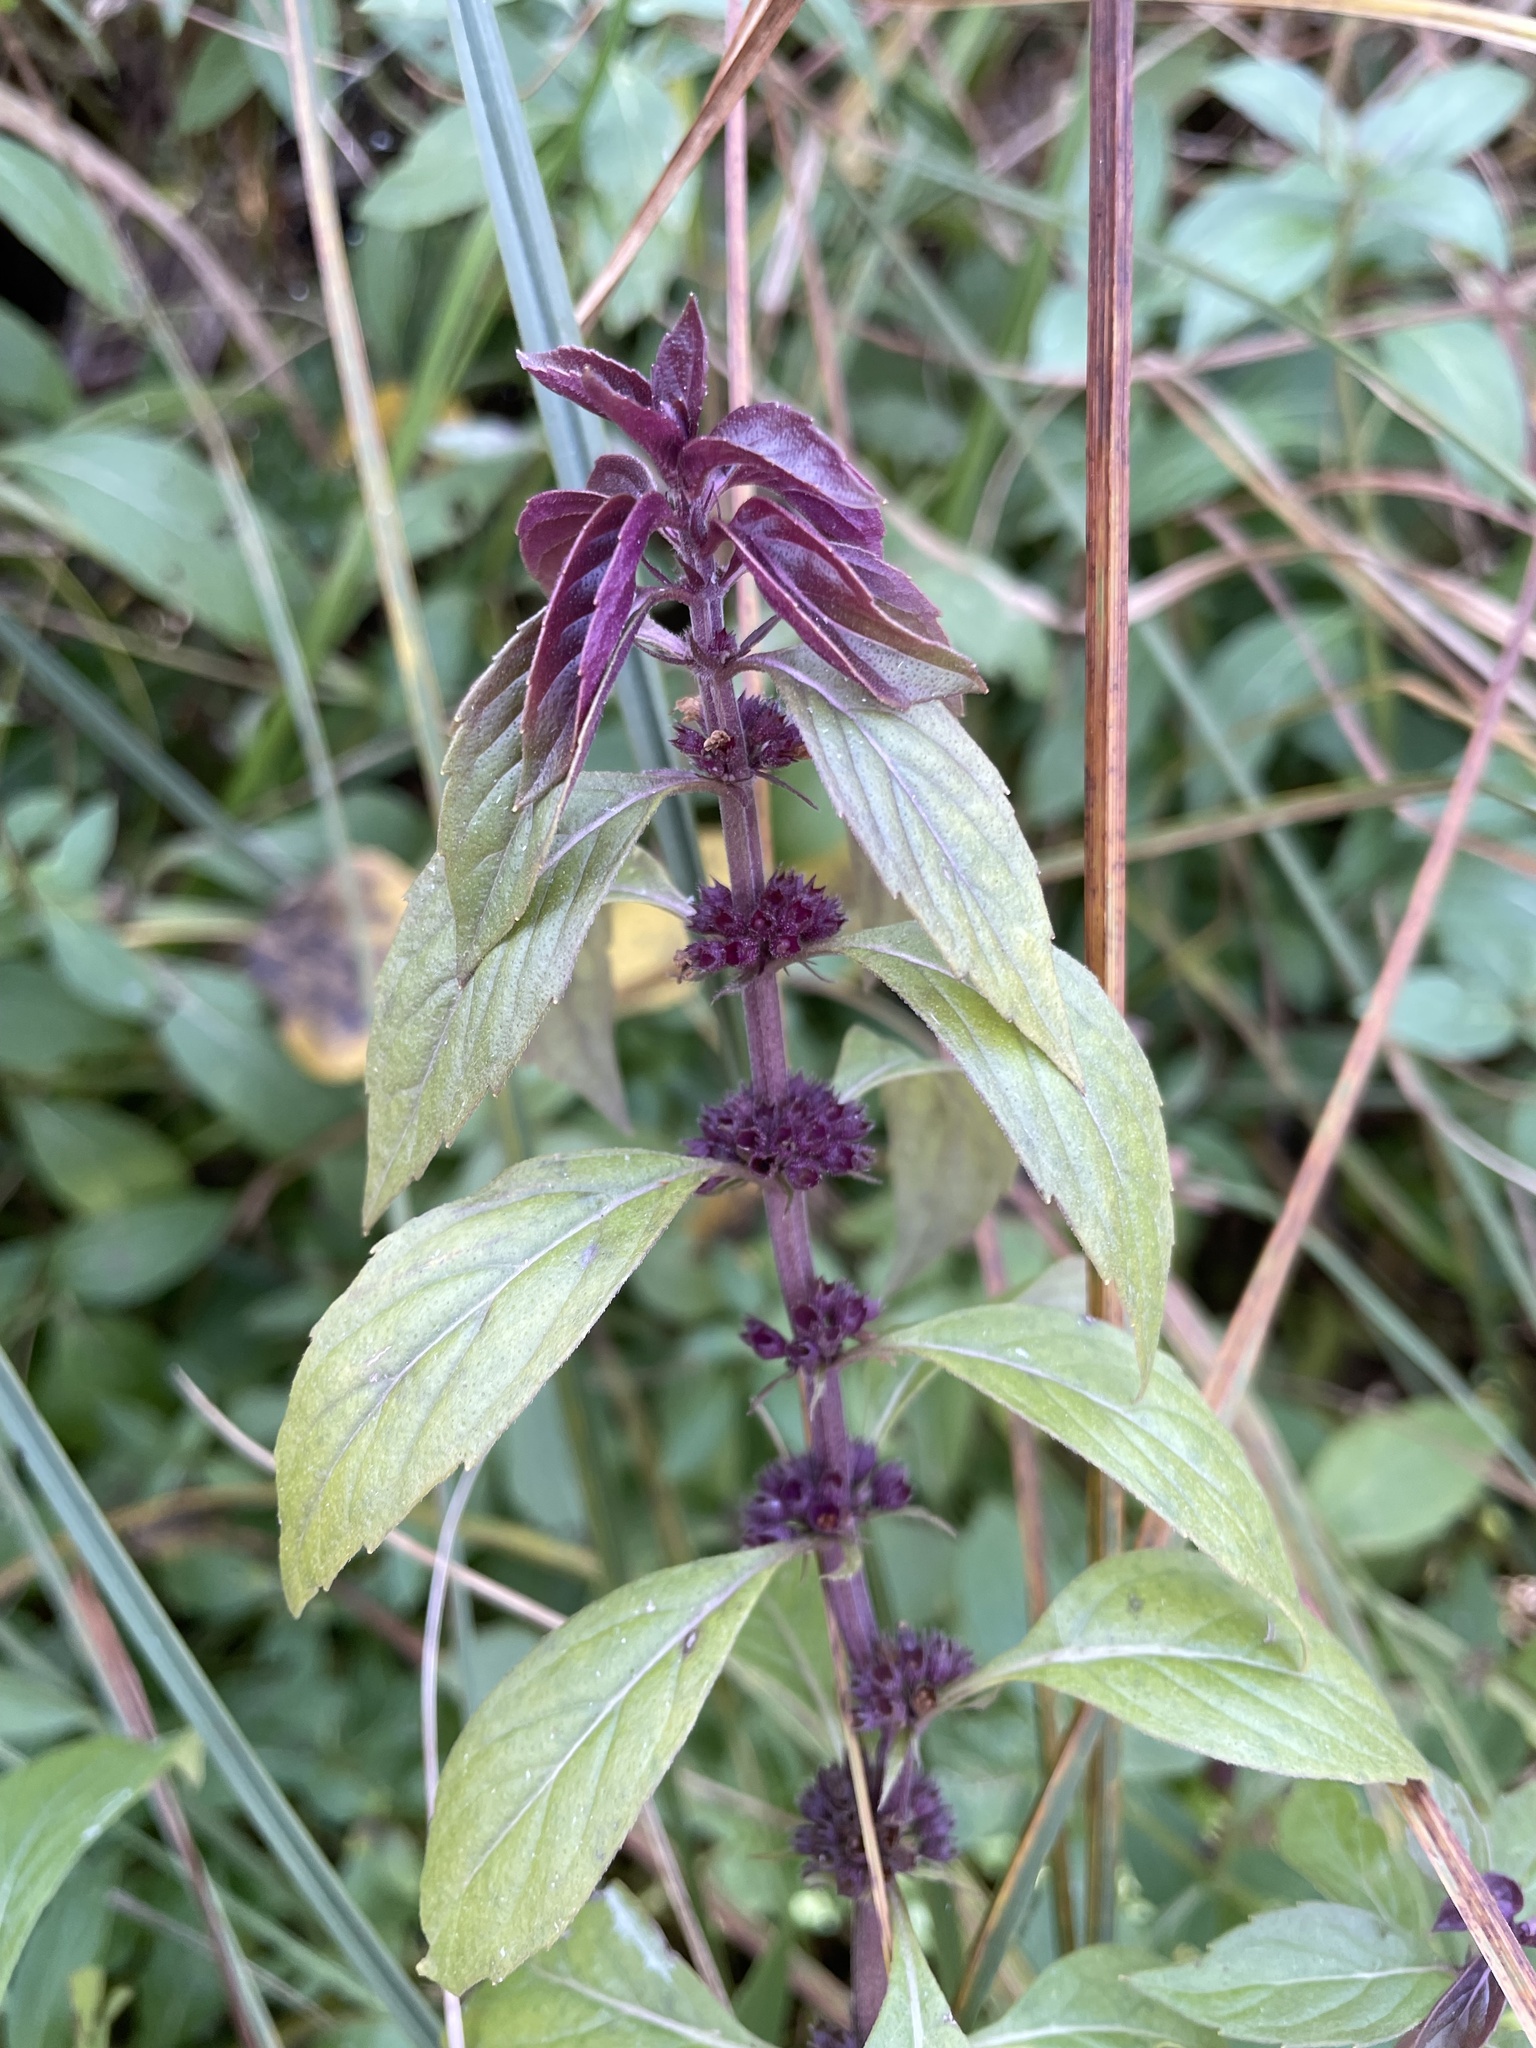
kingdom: Plantae
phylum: Tracheophyta
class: Magnoliopsida
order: Lamiales
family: Lamiaceae
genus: Mentha
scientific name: Mentha canadensis
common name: American corn mint
